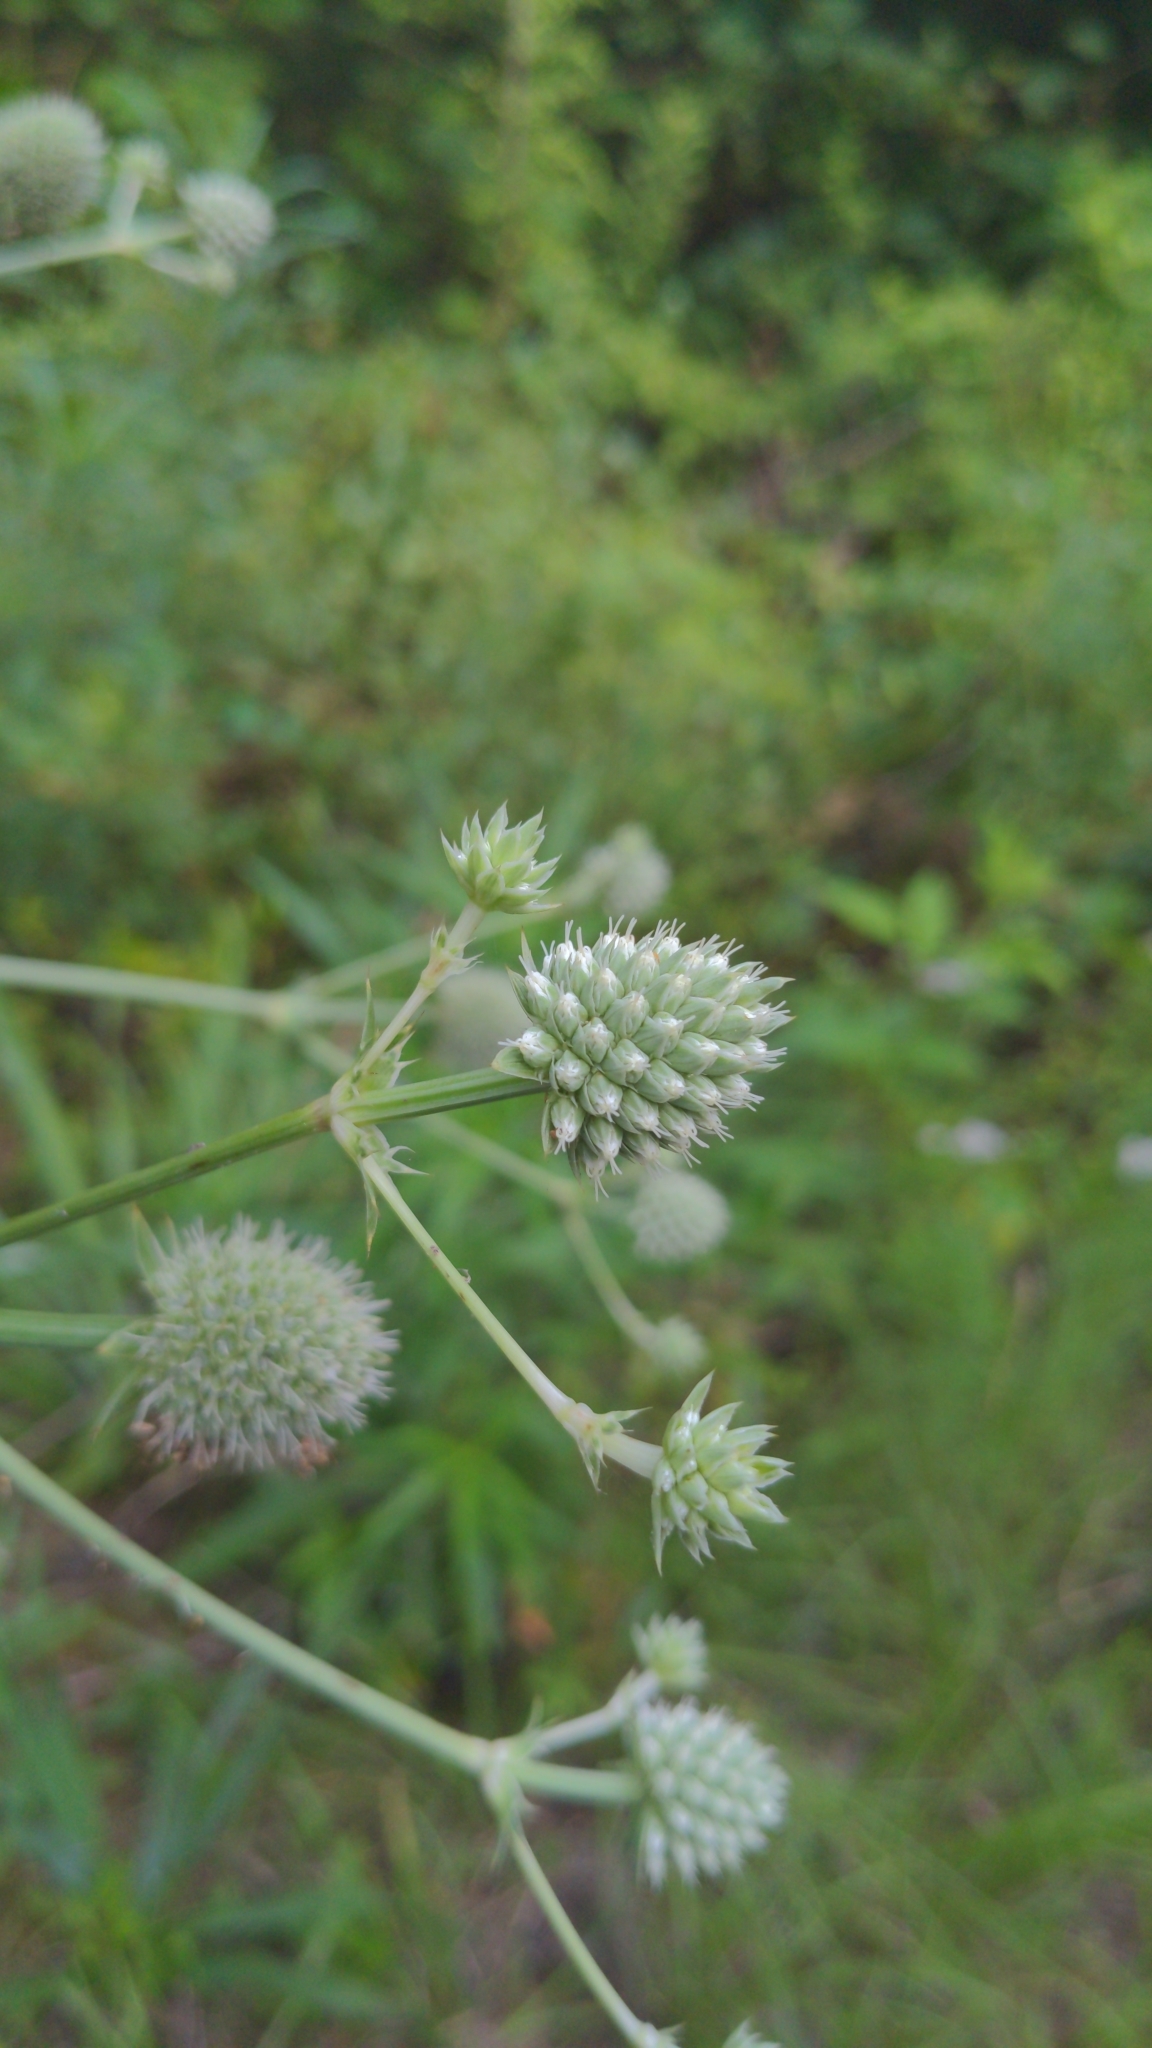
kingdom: Plantae
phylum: Tracheophyta
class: Magnoliopsida
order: Apiales
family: Apiaceae
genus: Eryngium
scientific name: Eryngium yuccifolium
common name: Button eryngo
